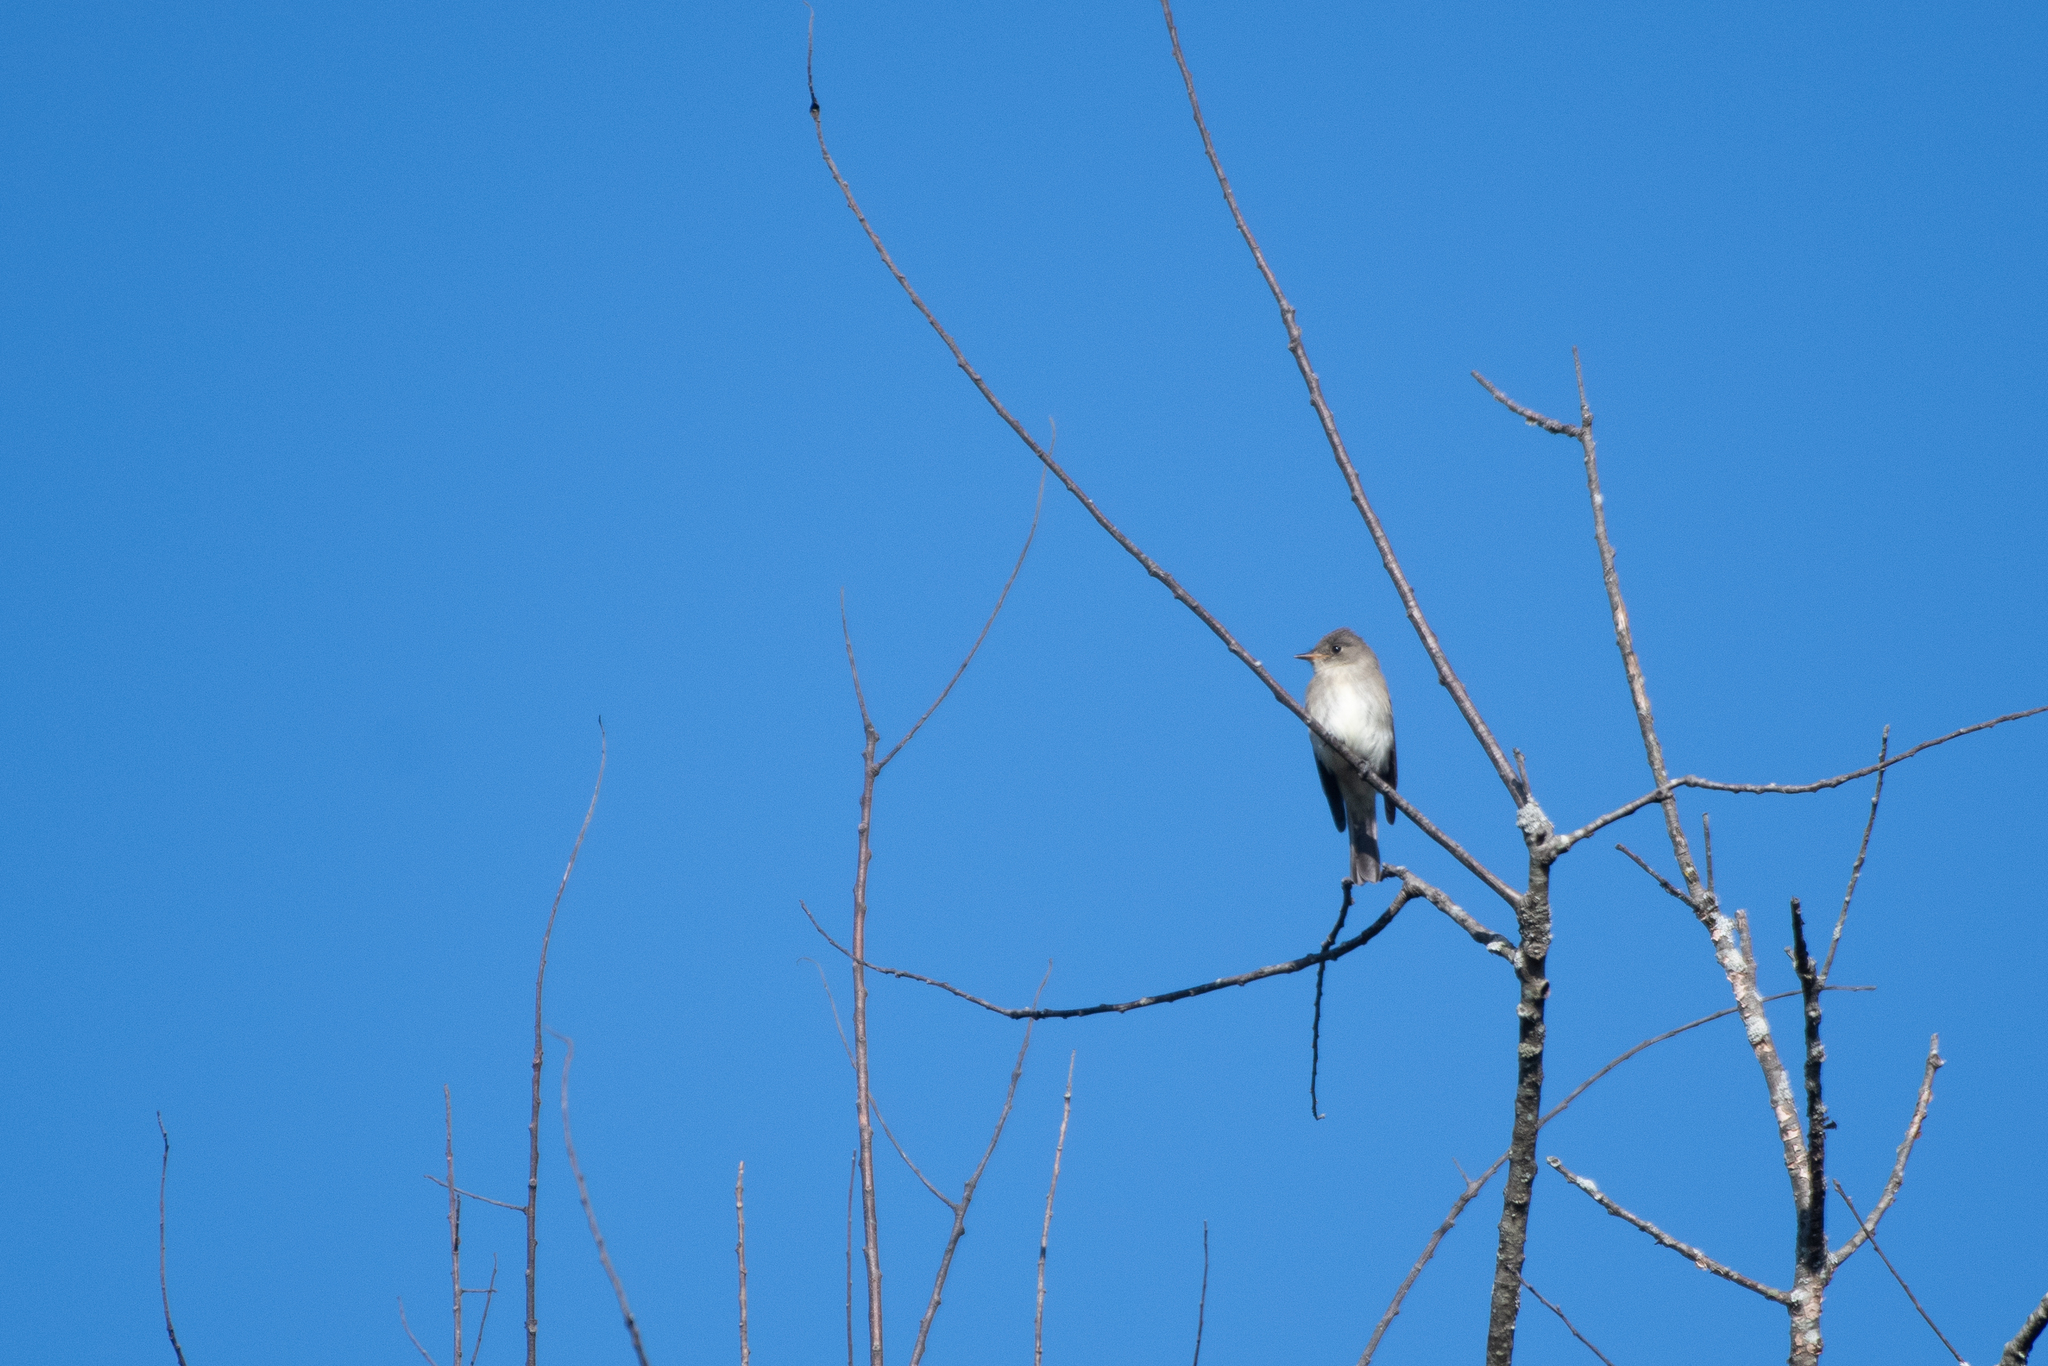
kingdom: Animalia
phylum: Chordata
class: Aves
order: Passeriformes
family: Tyrannidae
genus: Contopus
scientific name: Contopus virens
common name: Eastern wood-pewee
